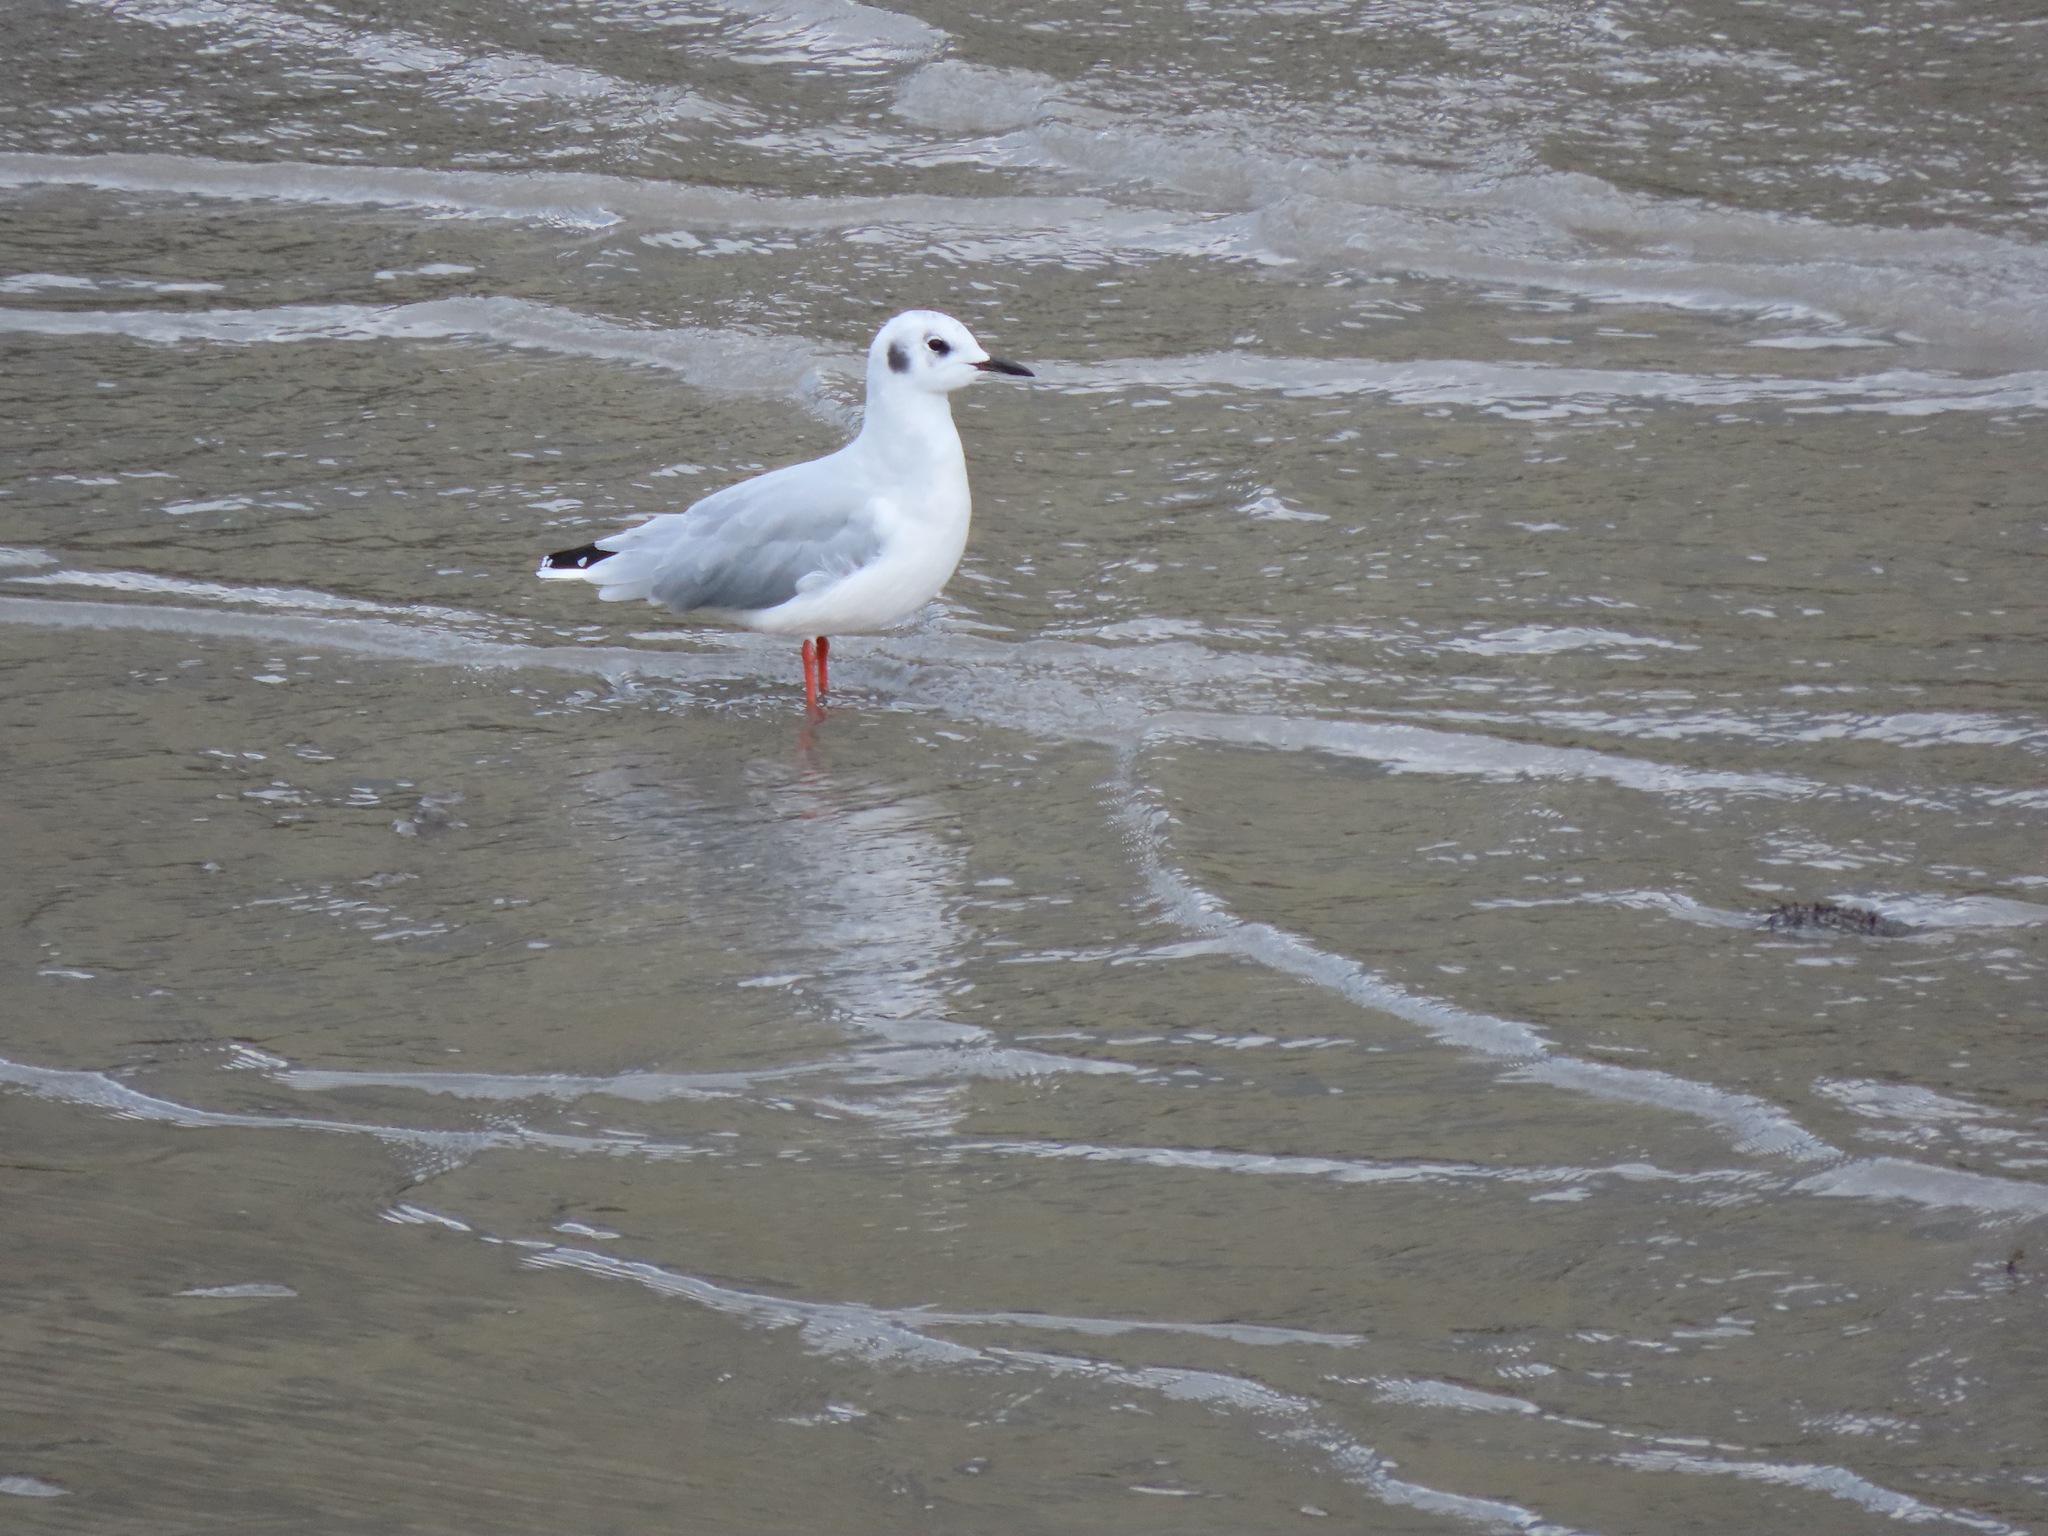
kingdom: Animalia
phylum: Chordata
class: Aves
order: Charadriiformes
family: Laridae
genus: Chroicocephalus
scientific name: Chroicocephalus philadelphia
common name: Bonaparte's gull
